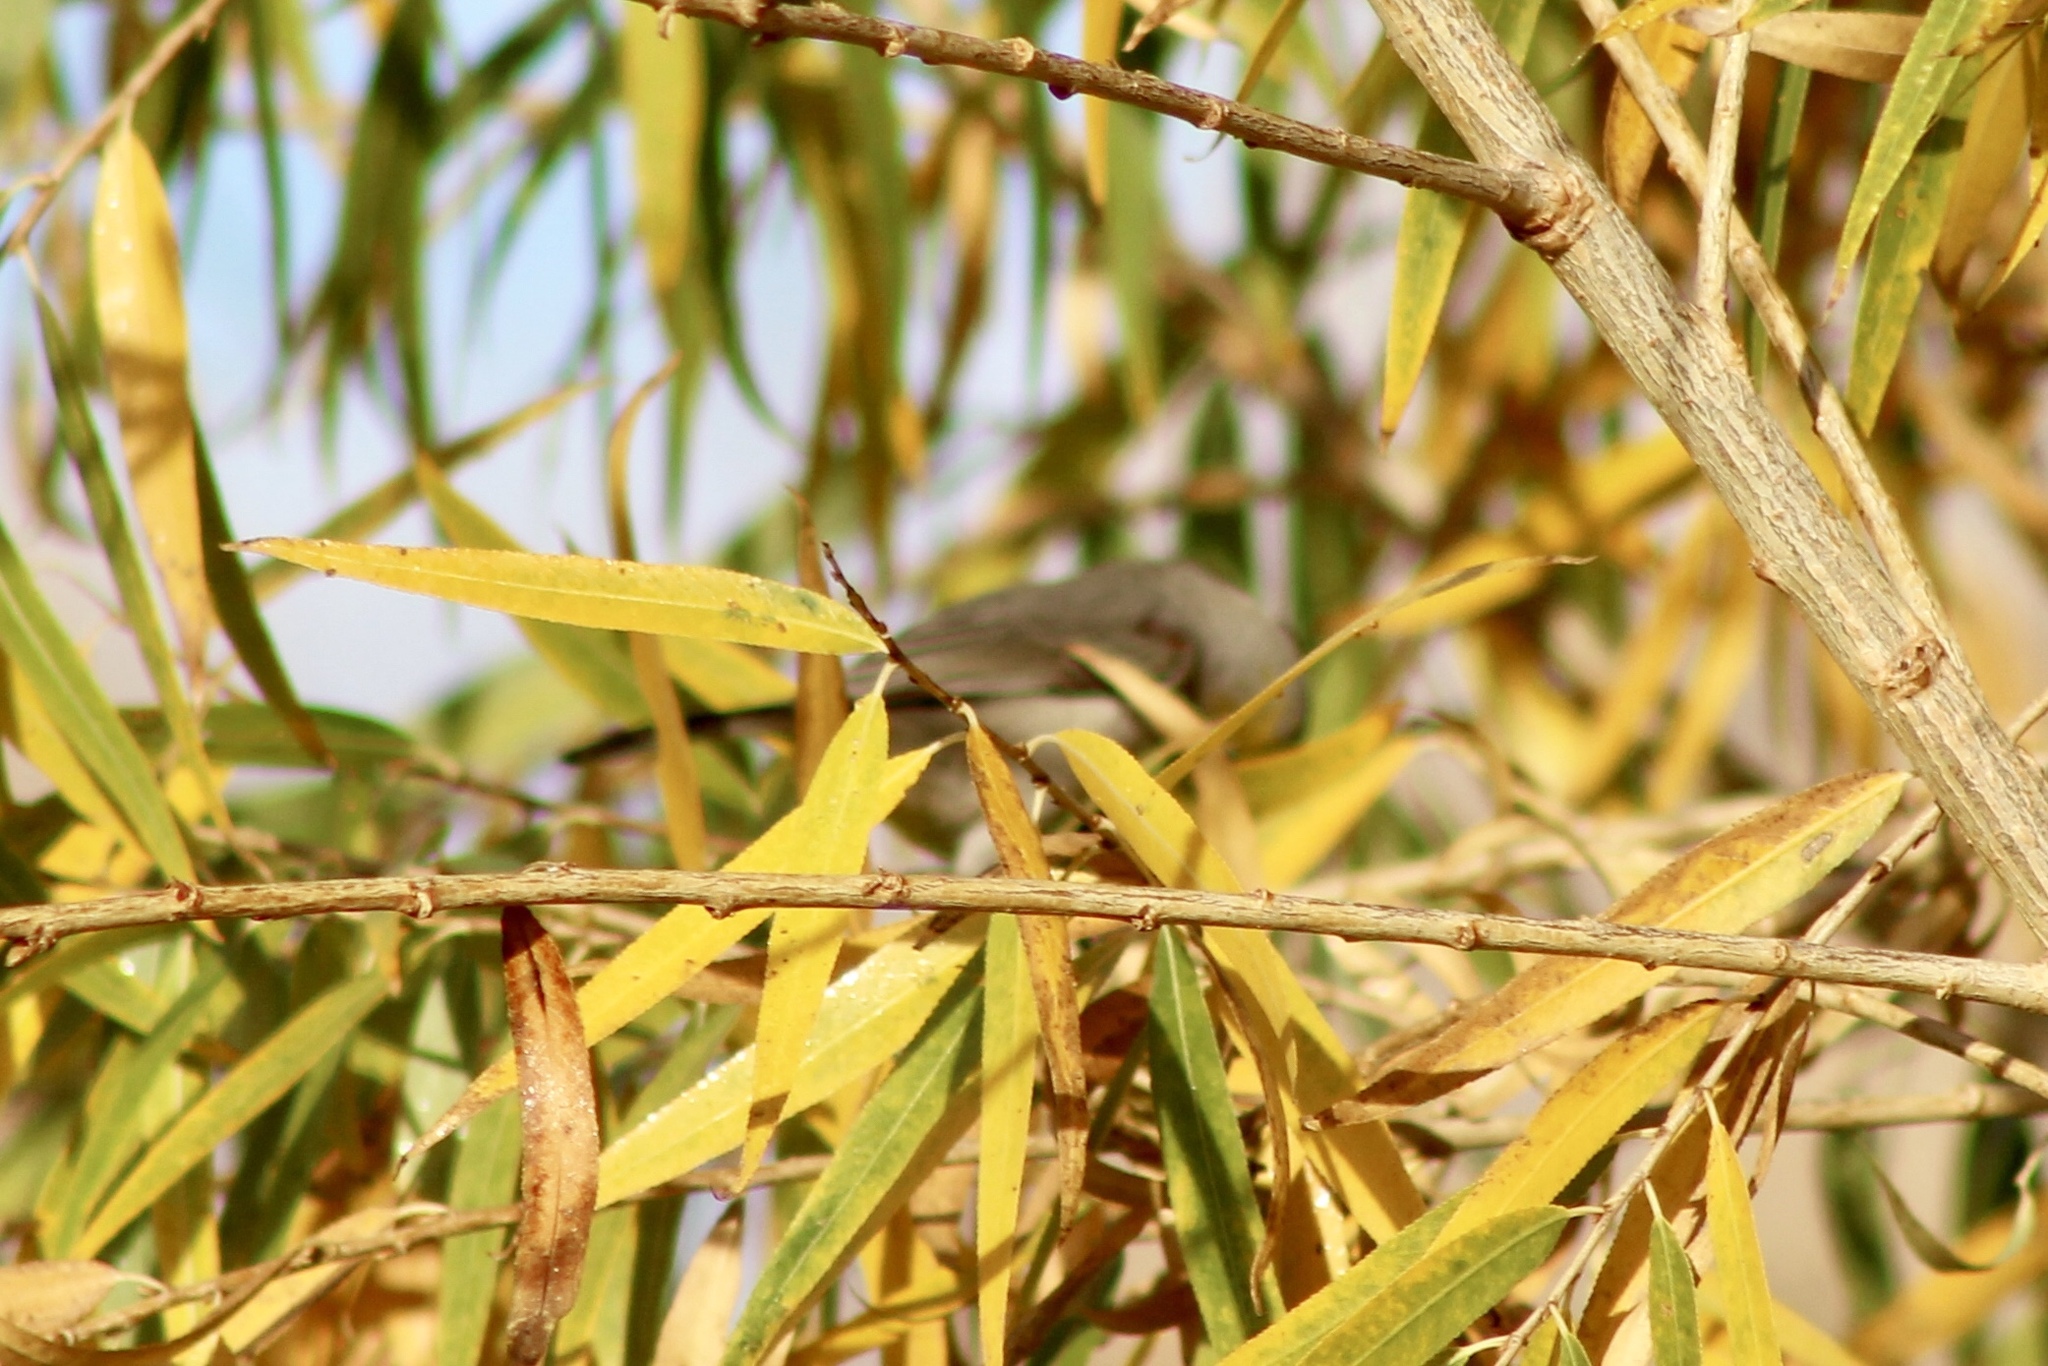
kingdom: Animalia
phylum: Chordata
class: Aves
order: Passeriformes
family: Remizidae
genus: Auriparus
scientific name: Auriparus flaviceps
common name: Verdin
